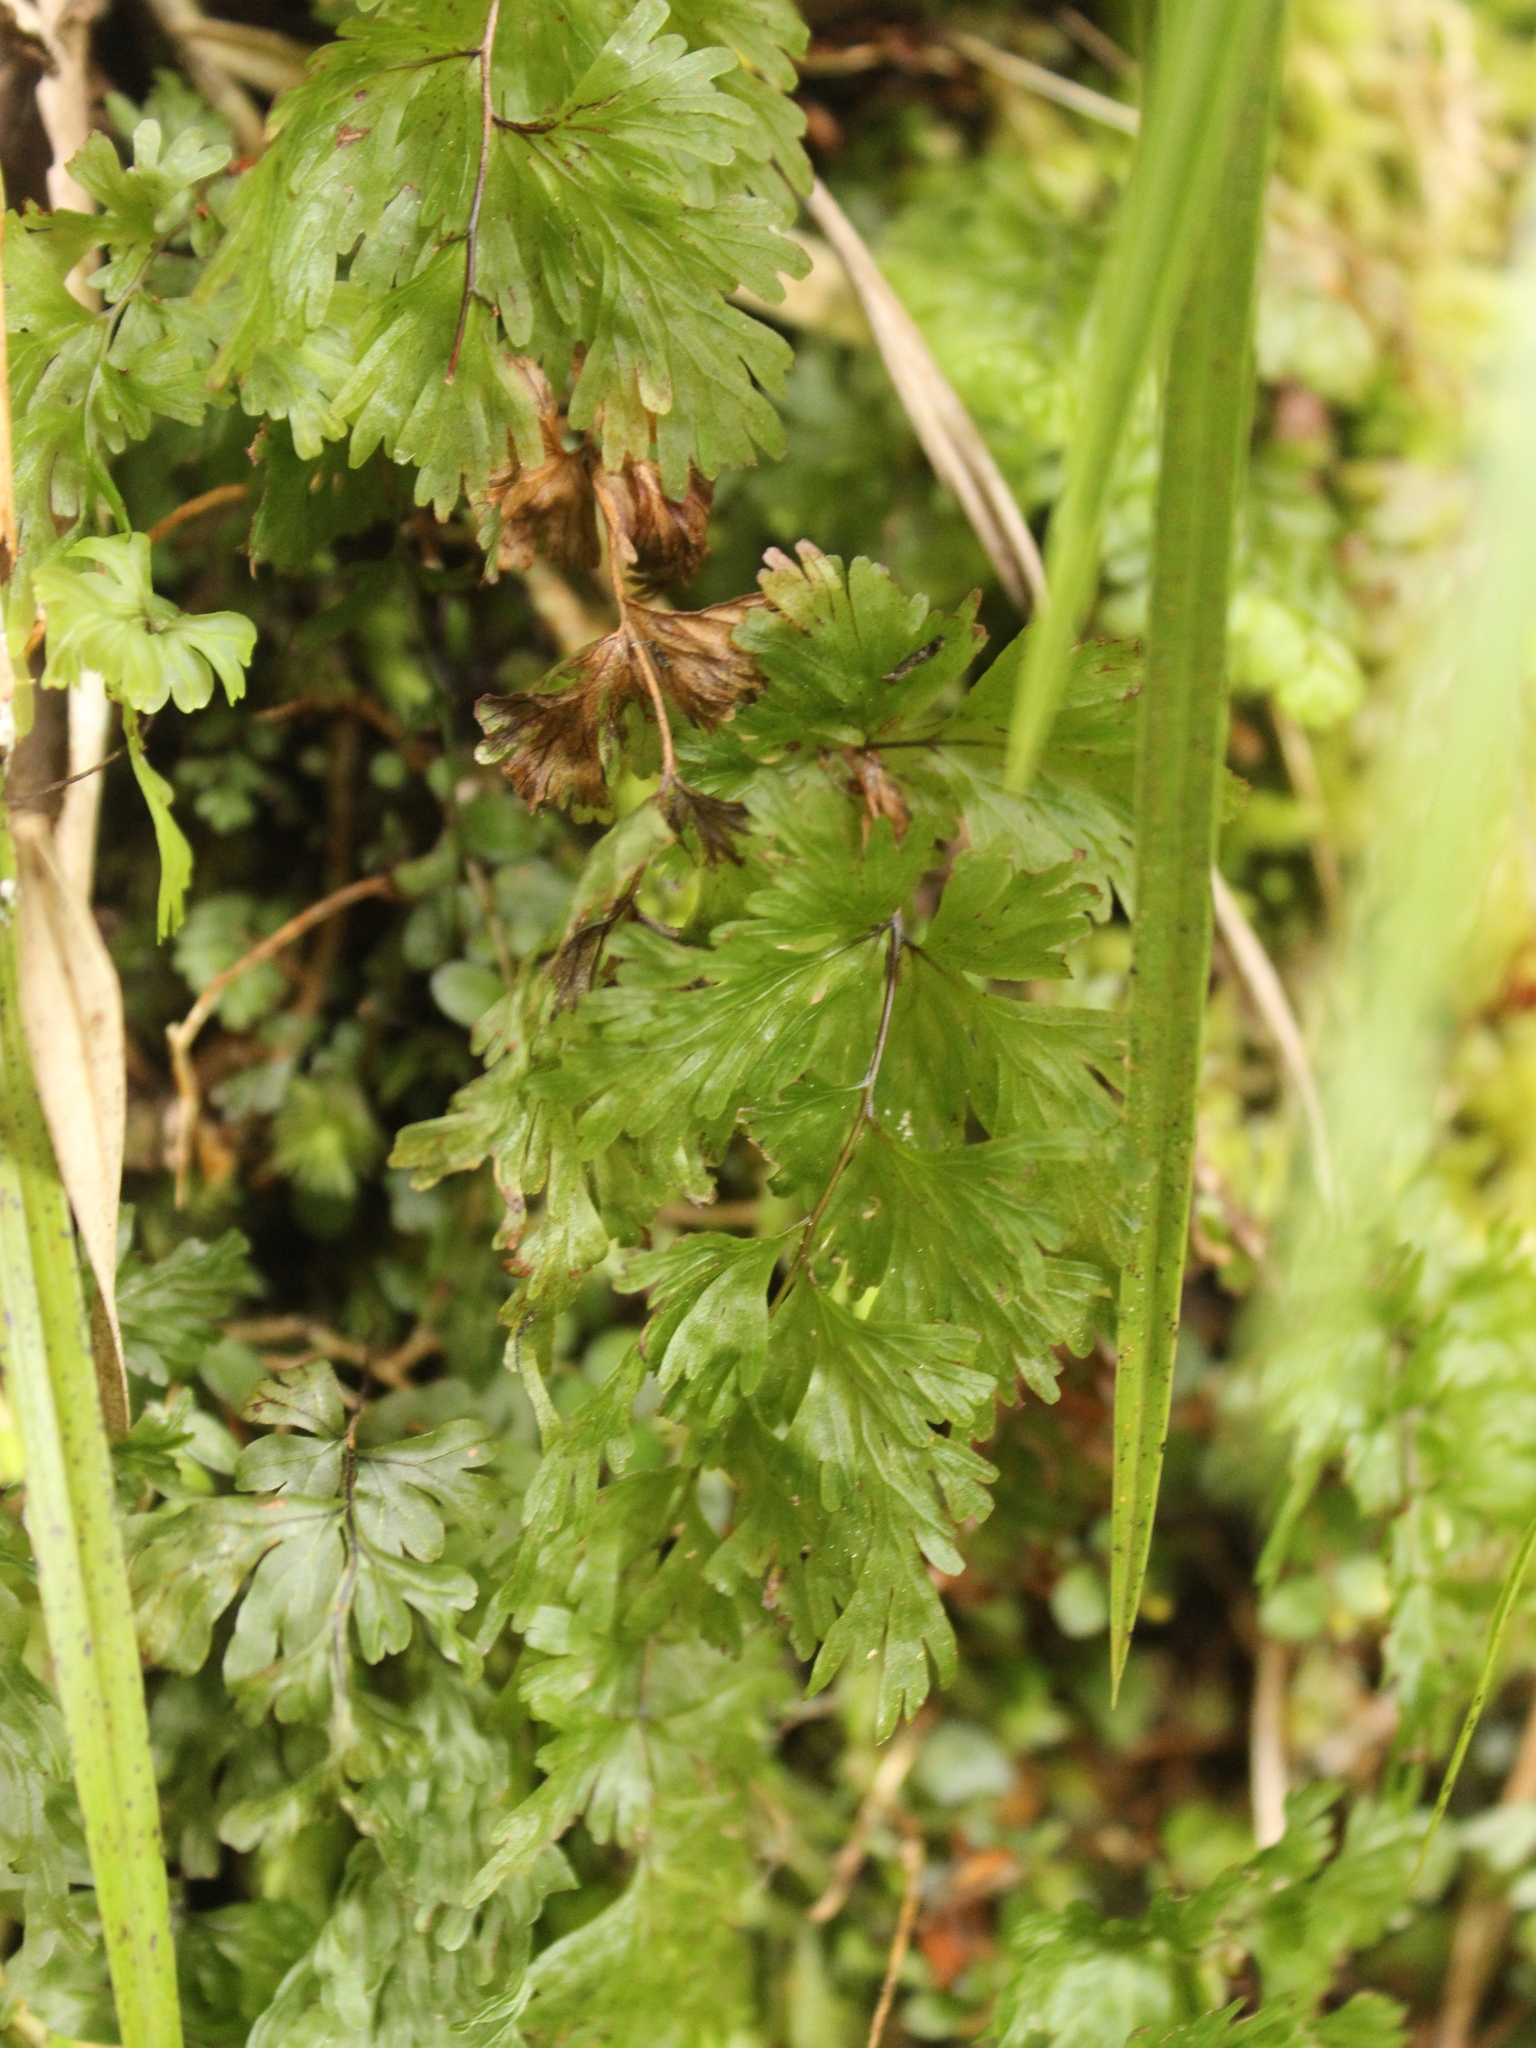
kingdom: Plantae
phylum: Tracheophyta
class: Polypodiopsida
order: Hymenophyllales
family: Hymenophyllaceae
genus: Hymenophyllum
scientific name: Hymenophyllum flabellatum
